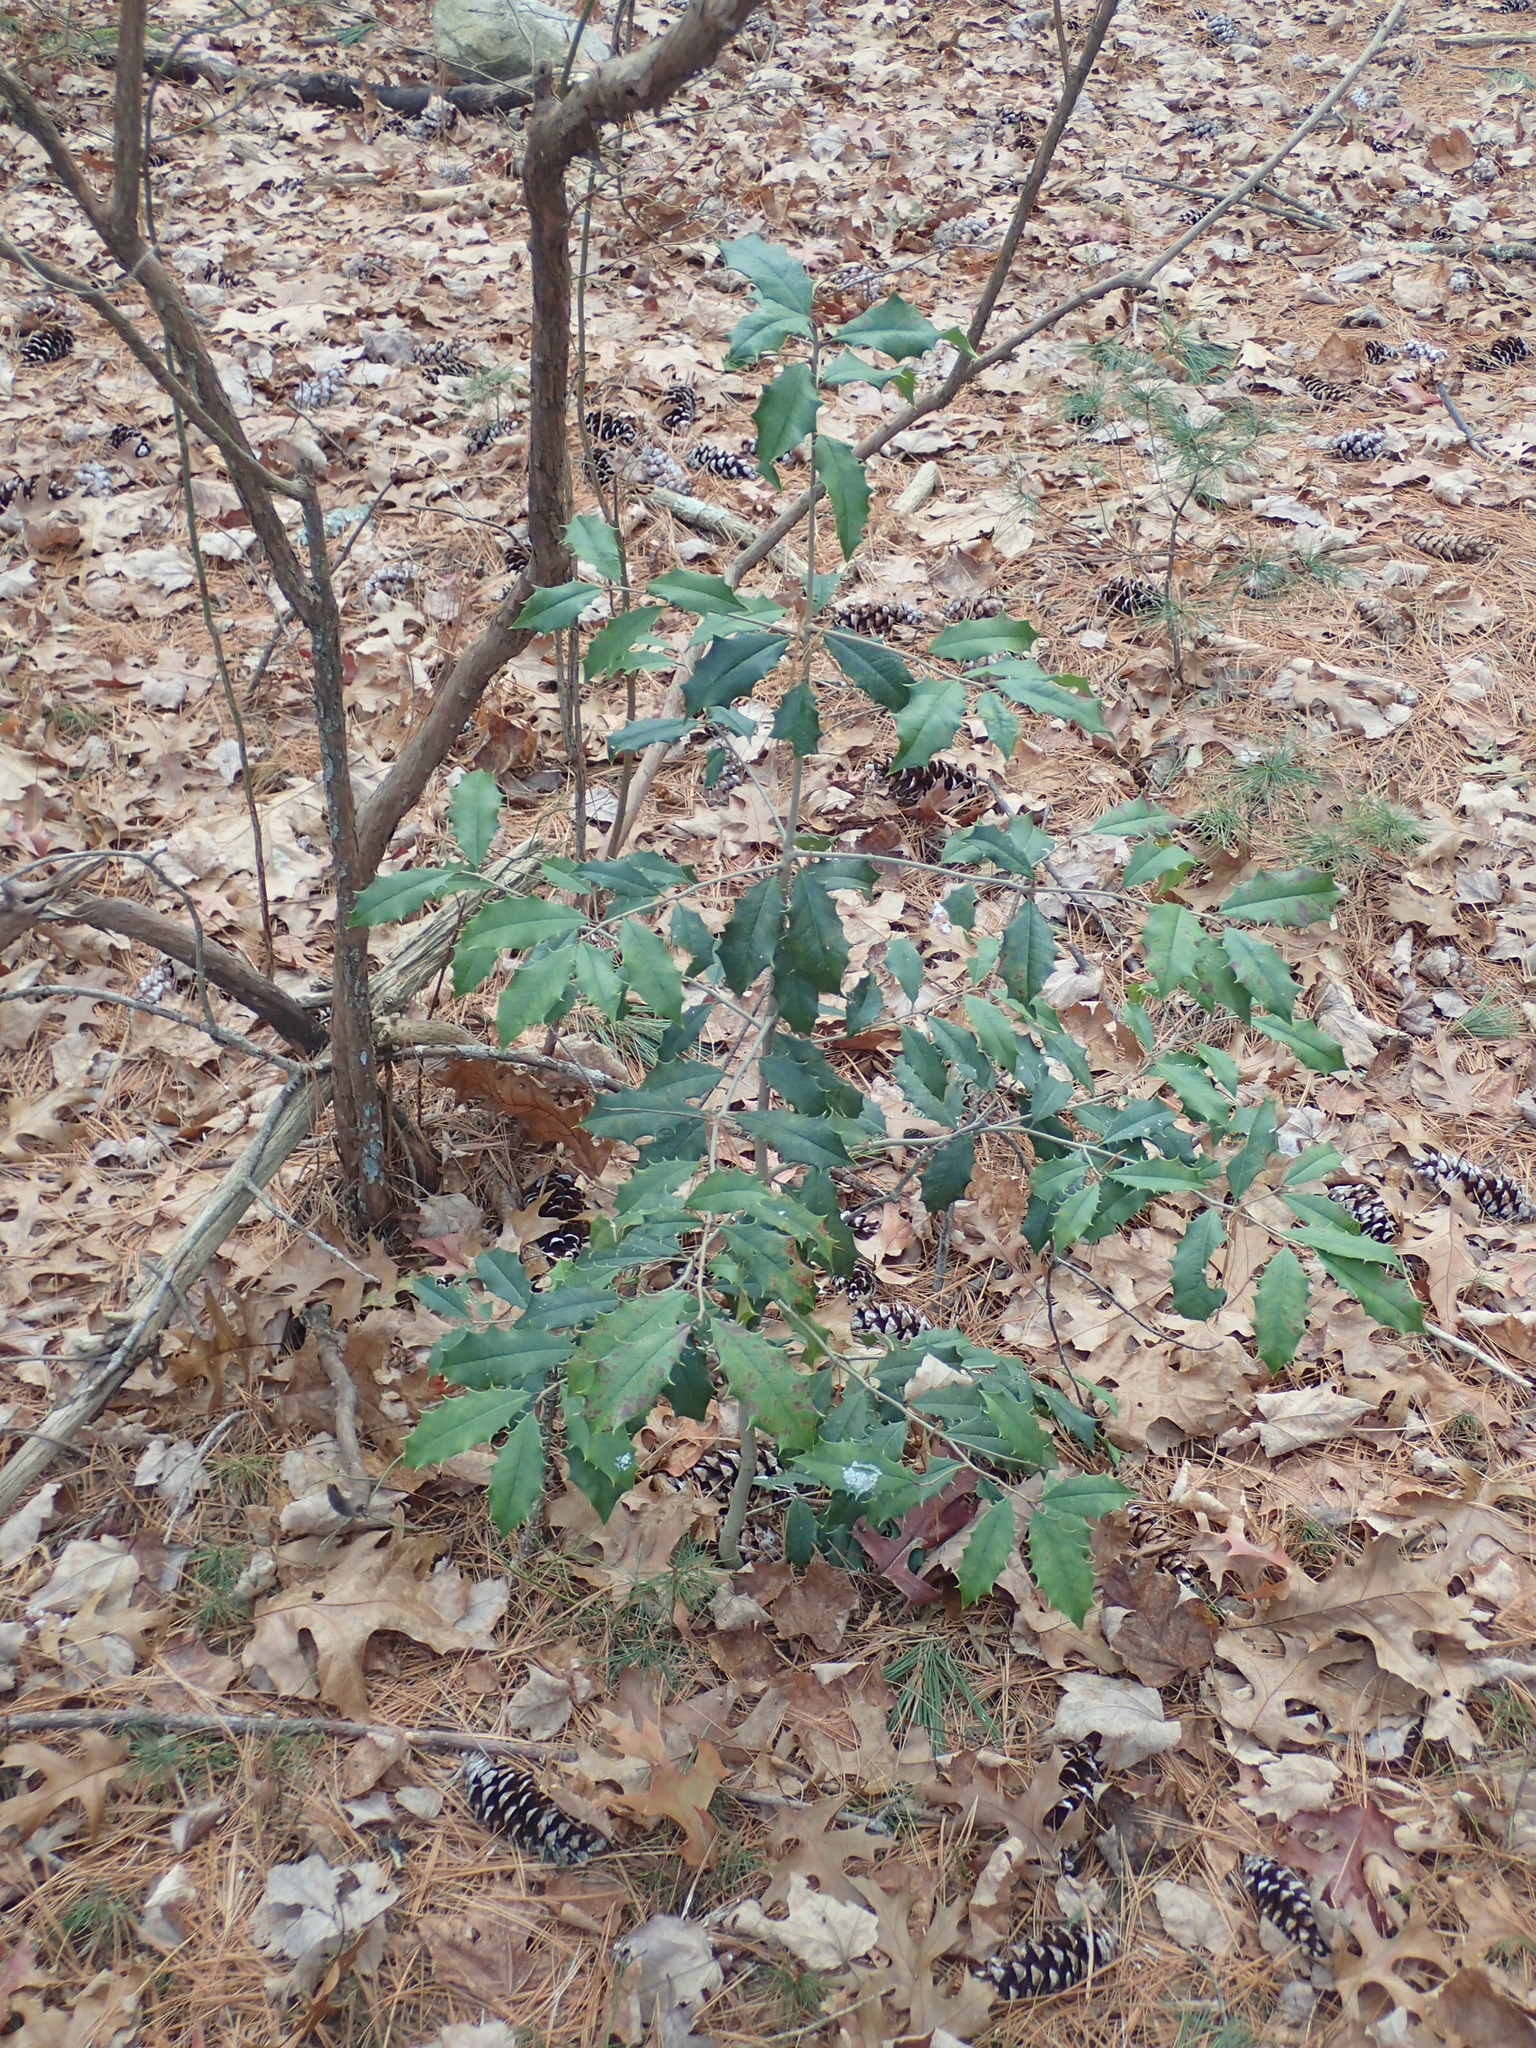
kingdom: Plantae
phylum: Tracheophyta
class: Magnoliopsida
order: Aquifoliales
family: Aquifoliaceae
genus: Ilex
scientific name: Ilex opaca
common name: American holly
